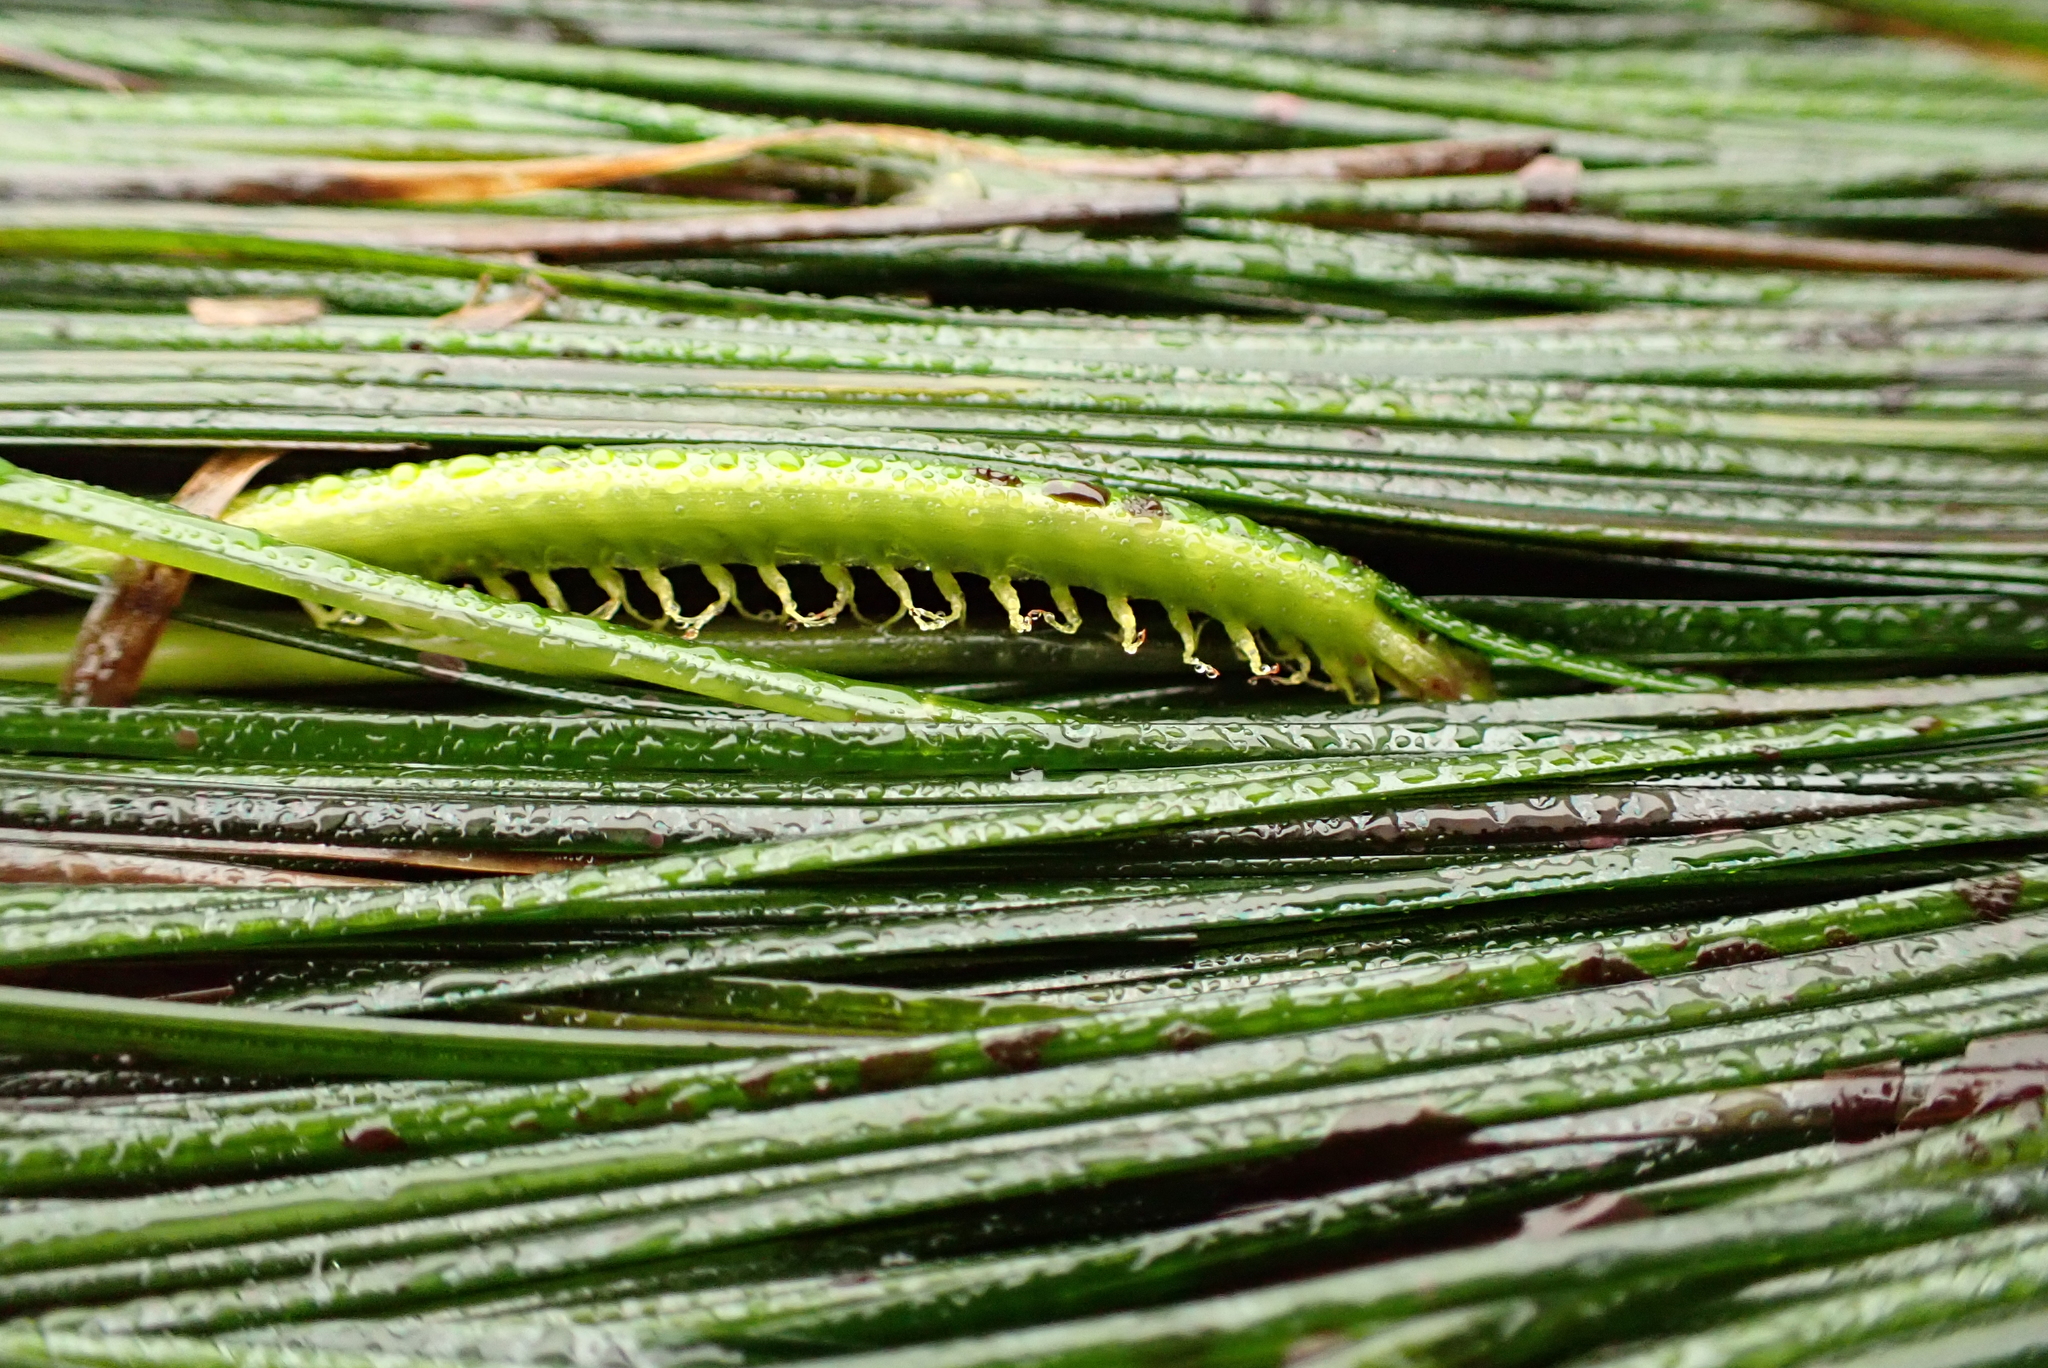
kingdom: Plantae
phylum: Tracheophyta
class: Liliopsida
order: Alismatales
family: Zosteraceae
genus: Phyllospadix
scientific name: Phyllospadix torreyi
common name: Surfgrass
